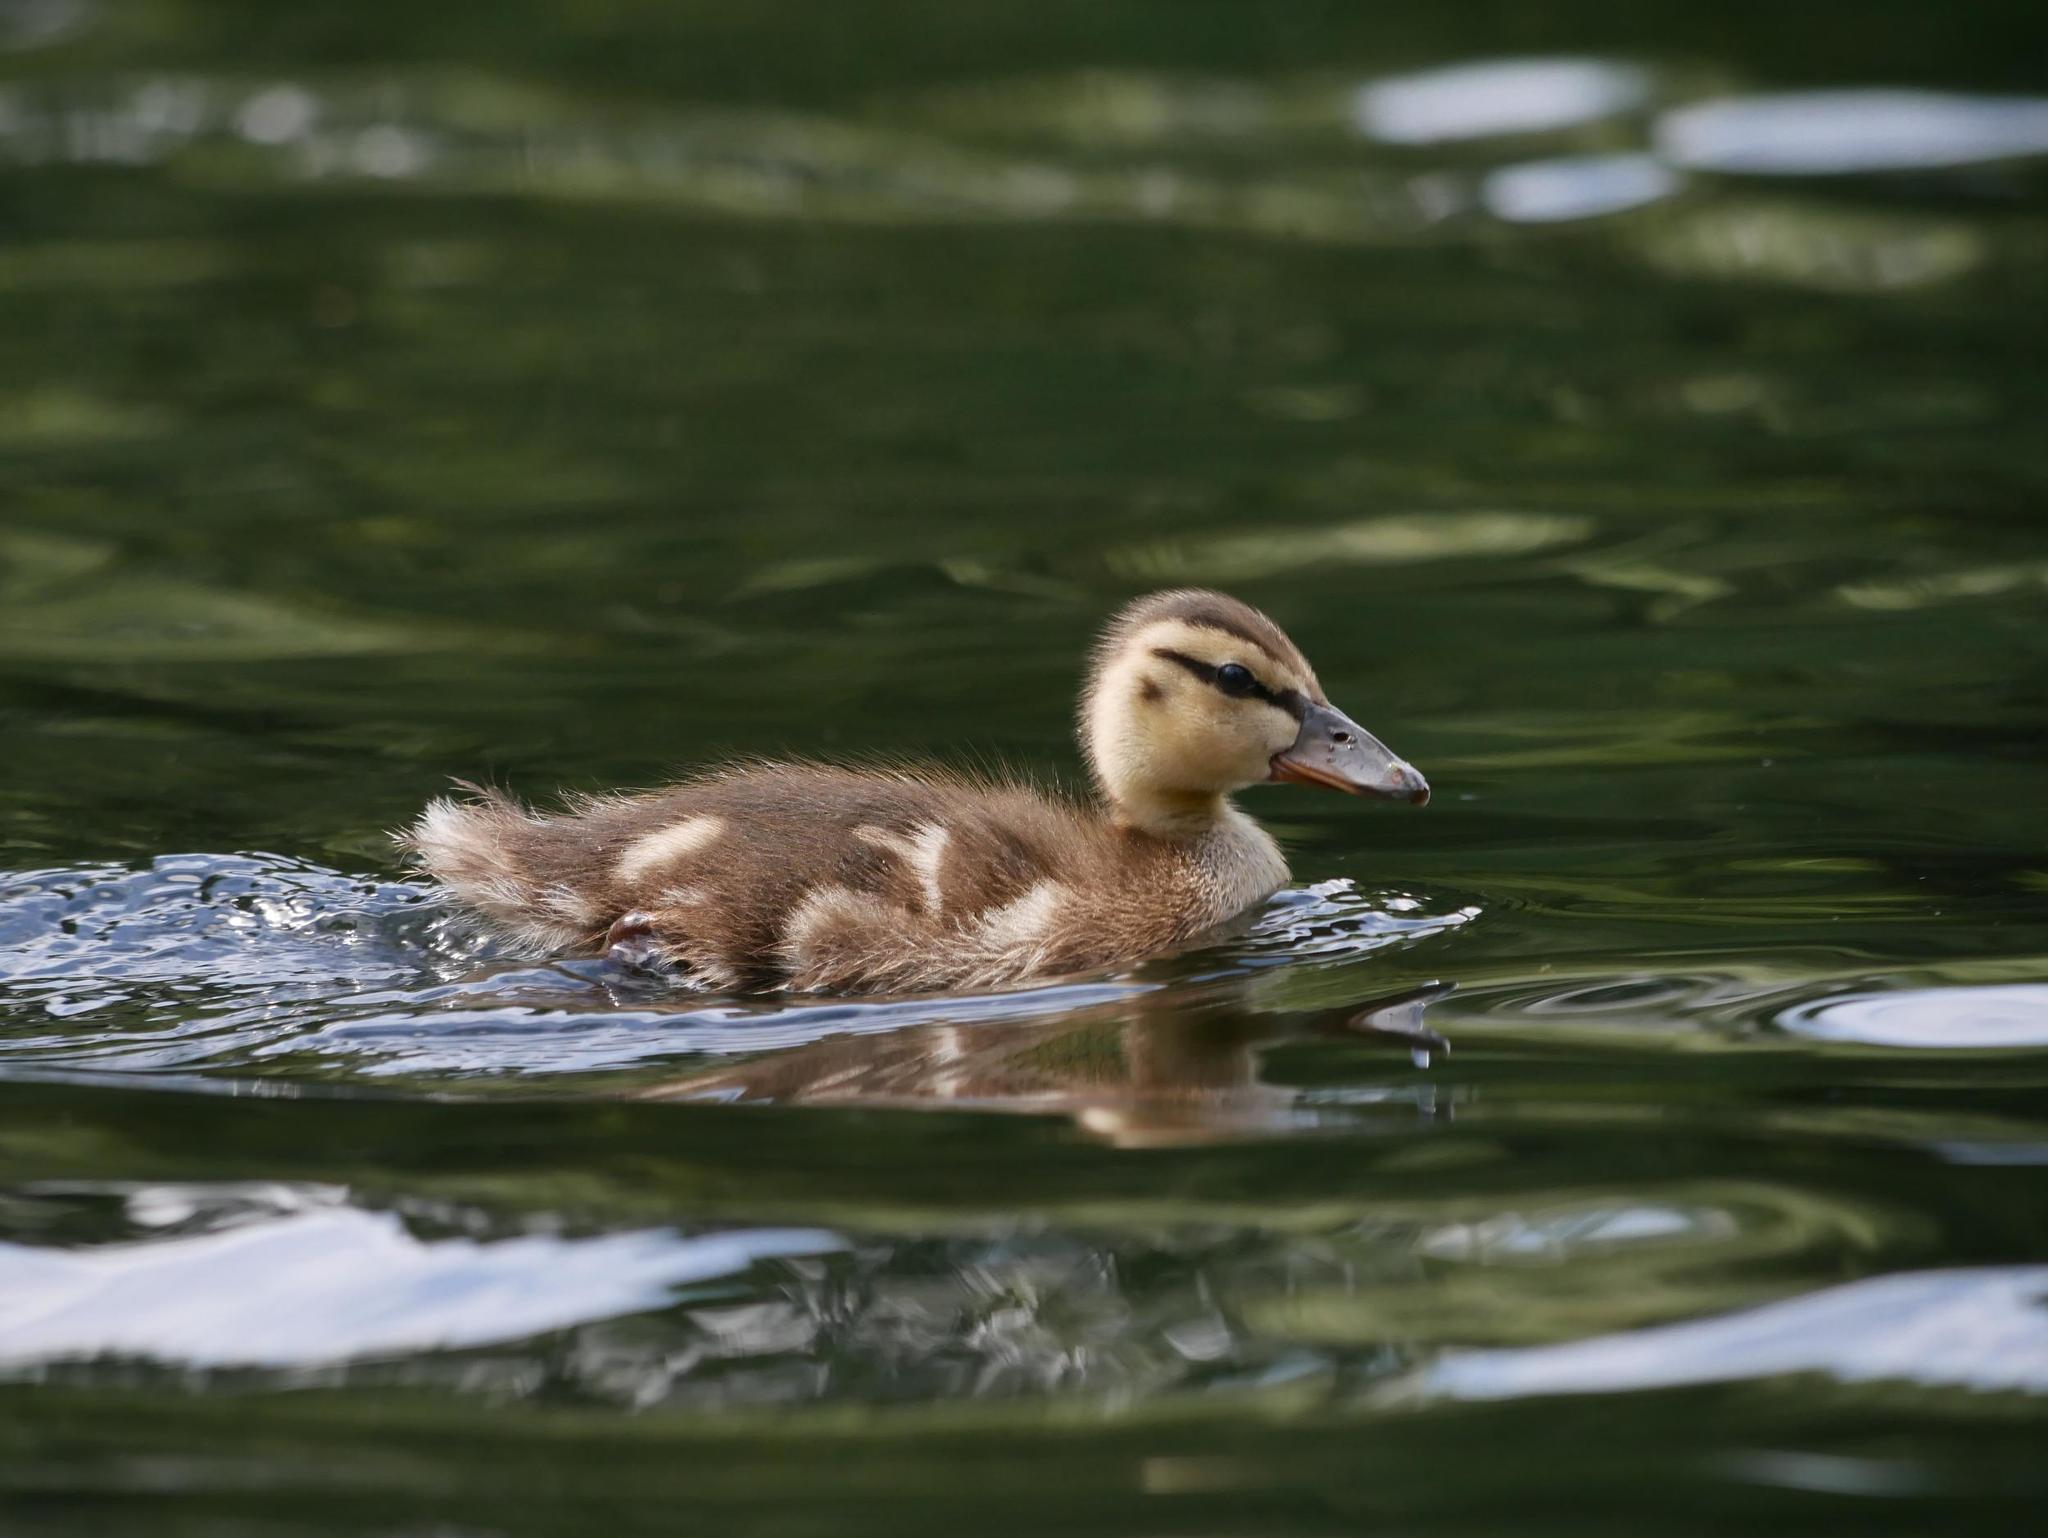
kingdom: Animalia
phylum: Chordata
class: Aves
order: Anseriformes
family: Anatidae
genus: Anas
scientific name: Anas platyrhynchos
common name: Mallard
